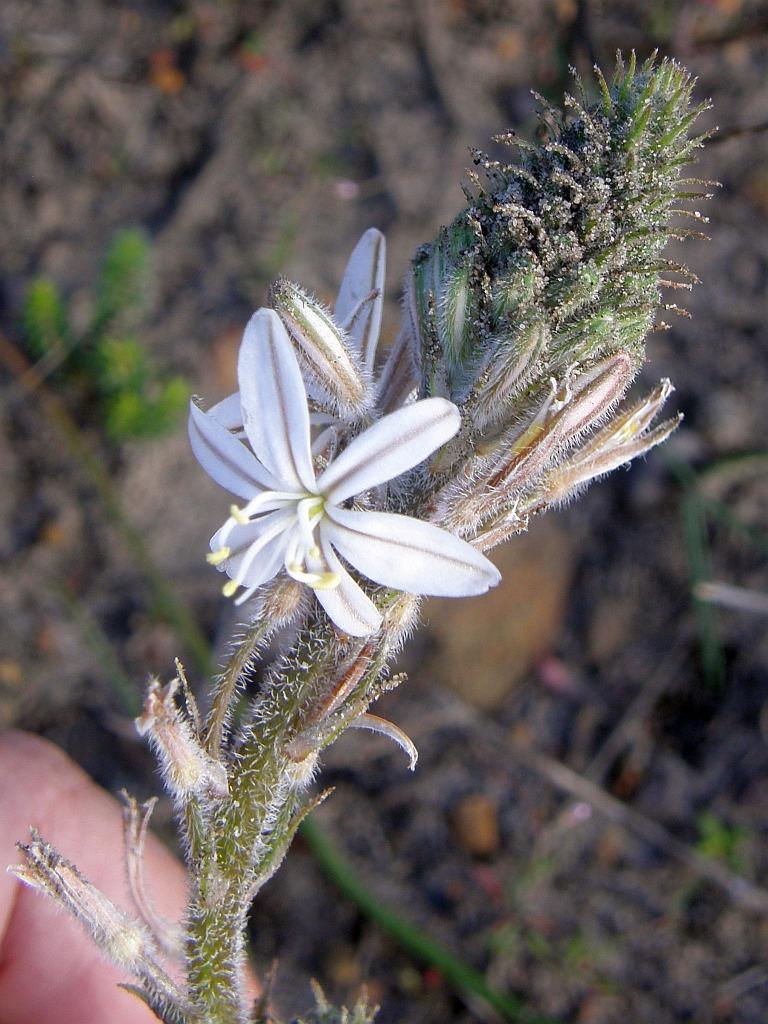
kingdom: Plantae
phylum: Tracheophyta
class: Liliopsida
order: Asparagales
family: Asphodelaceae
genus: Trachyandra
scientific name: Trachyandra hirsutiflora
